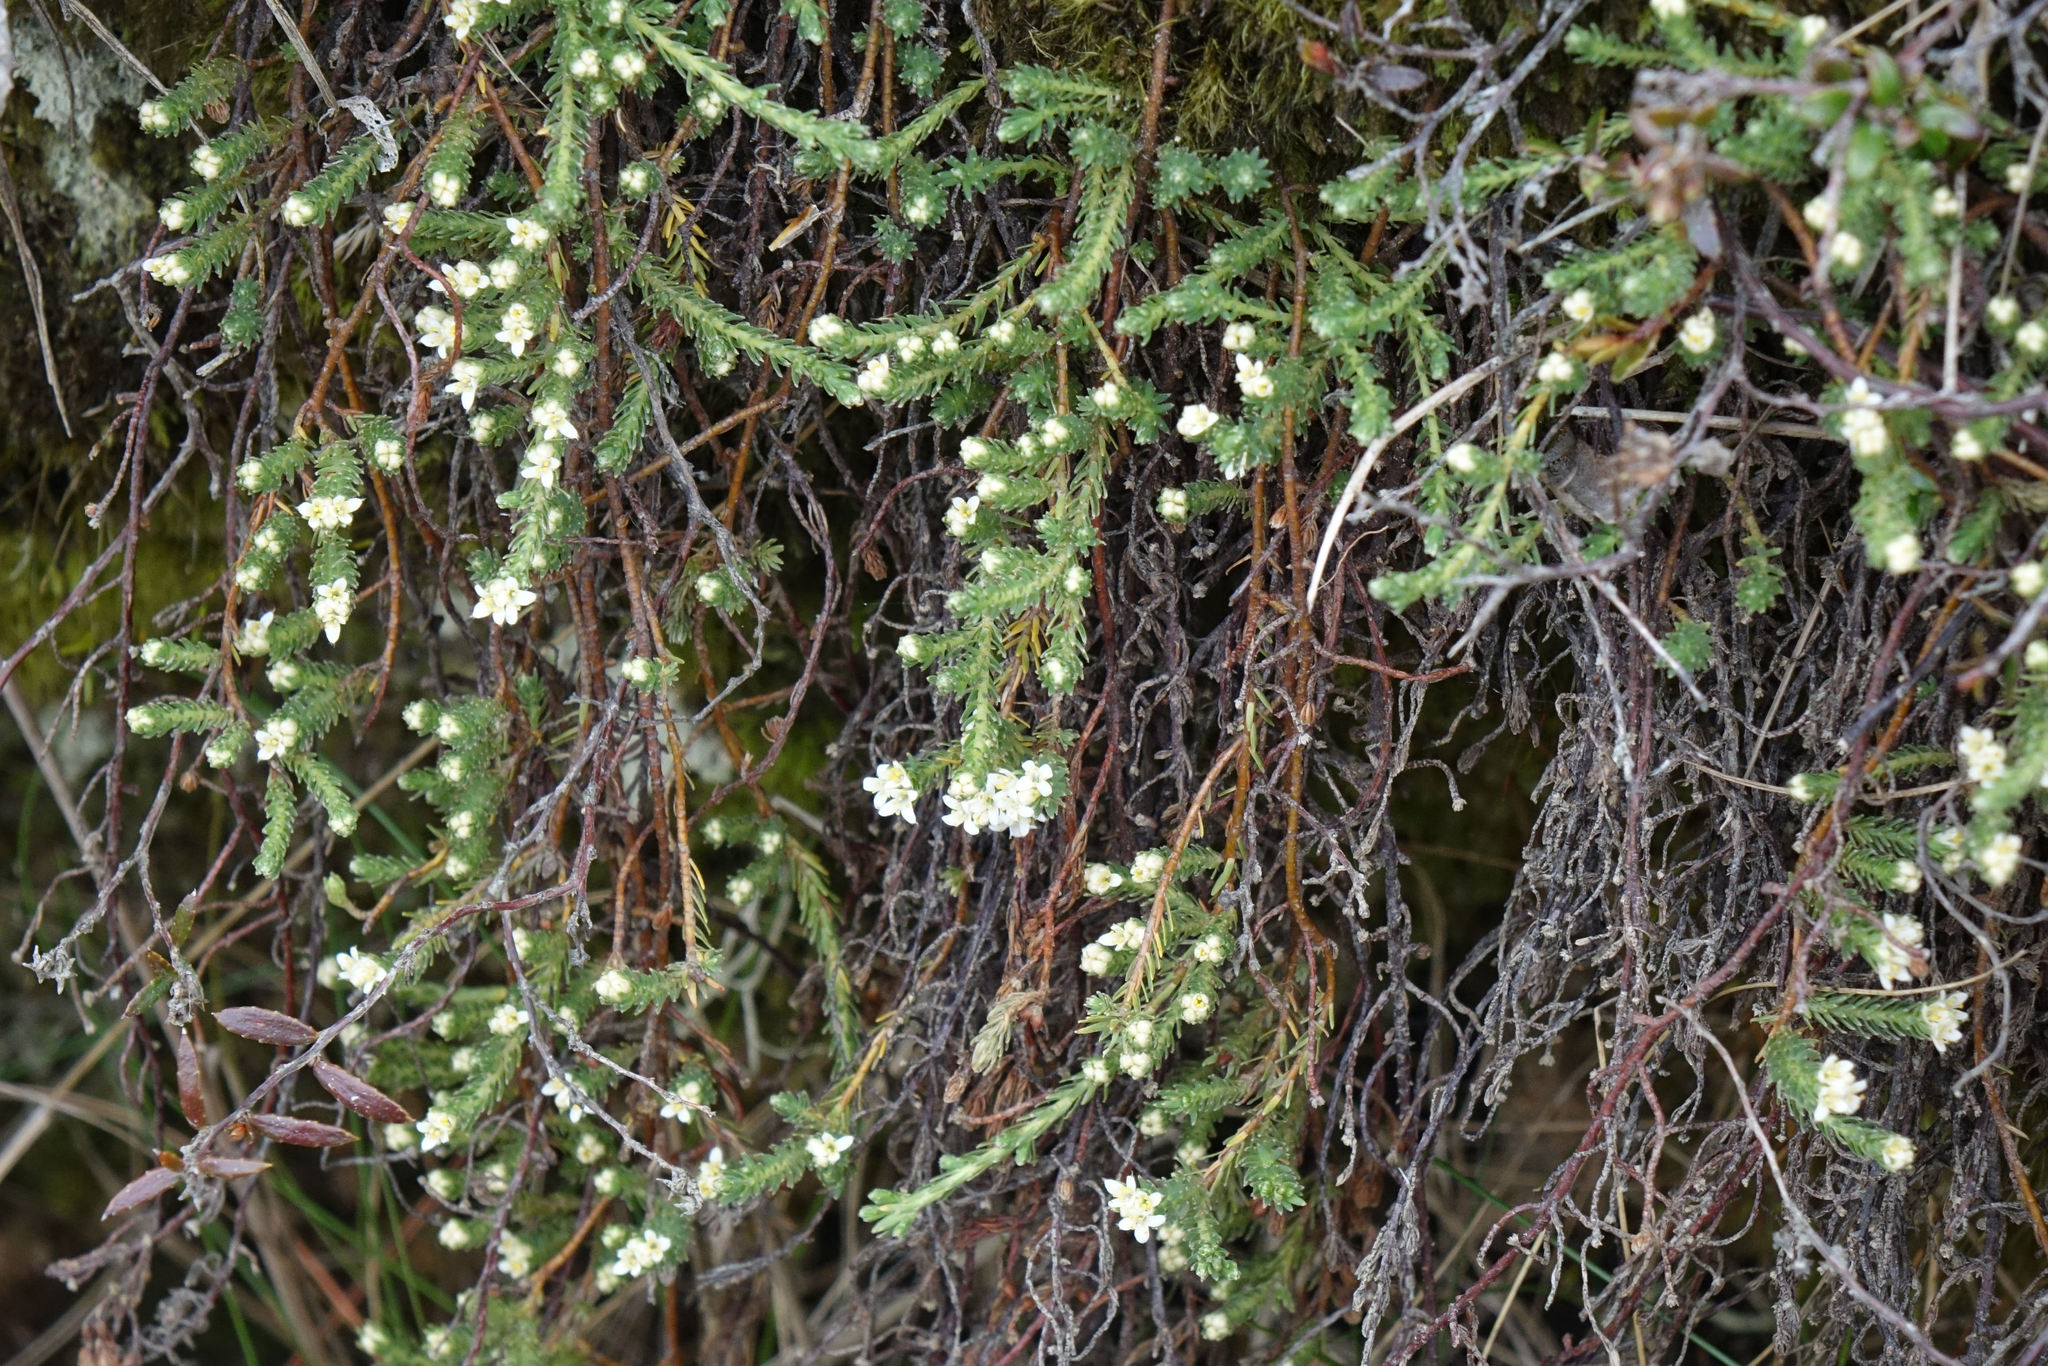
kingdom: Plantae
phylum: Tracheophyta
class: Magnoliopsida
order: Malvales
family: Thymelaeaceae
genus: Kelleria
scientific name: Kelleria laxa
